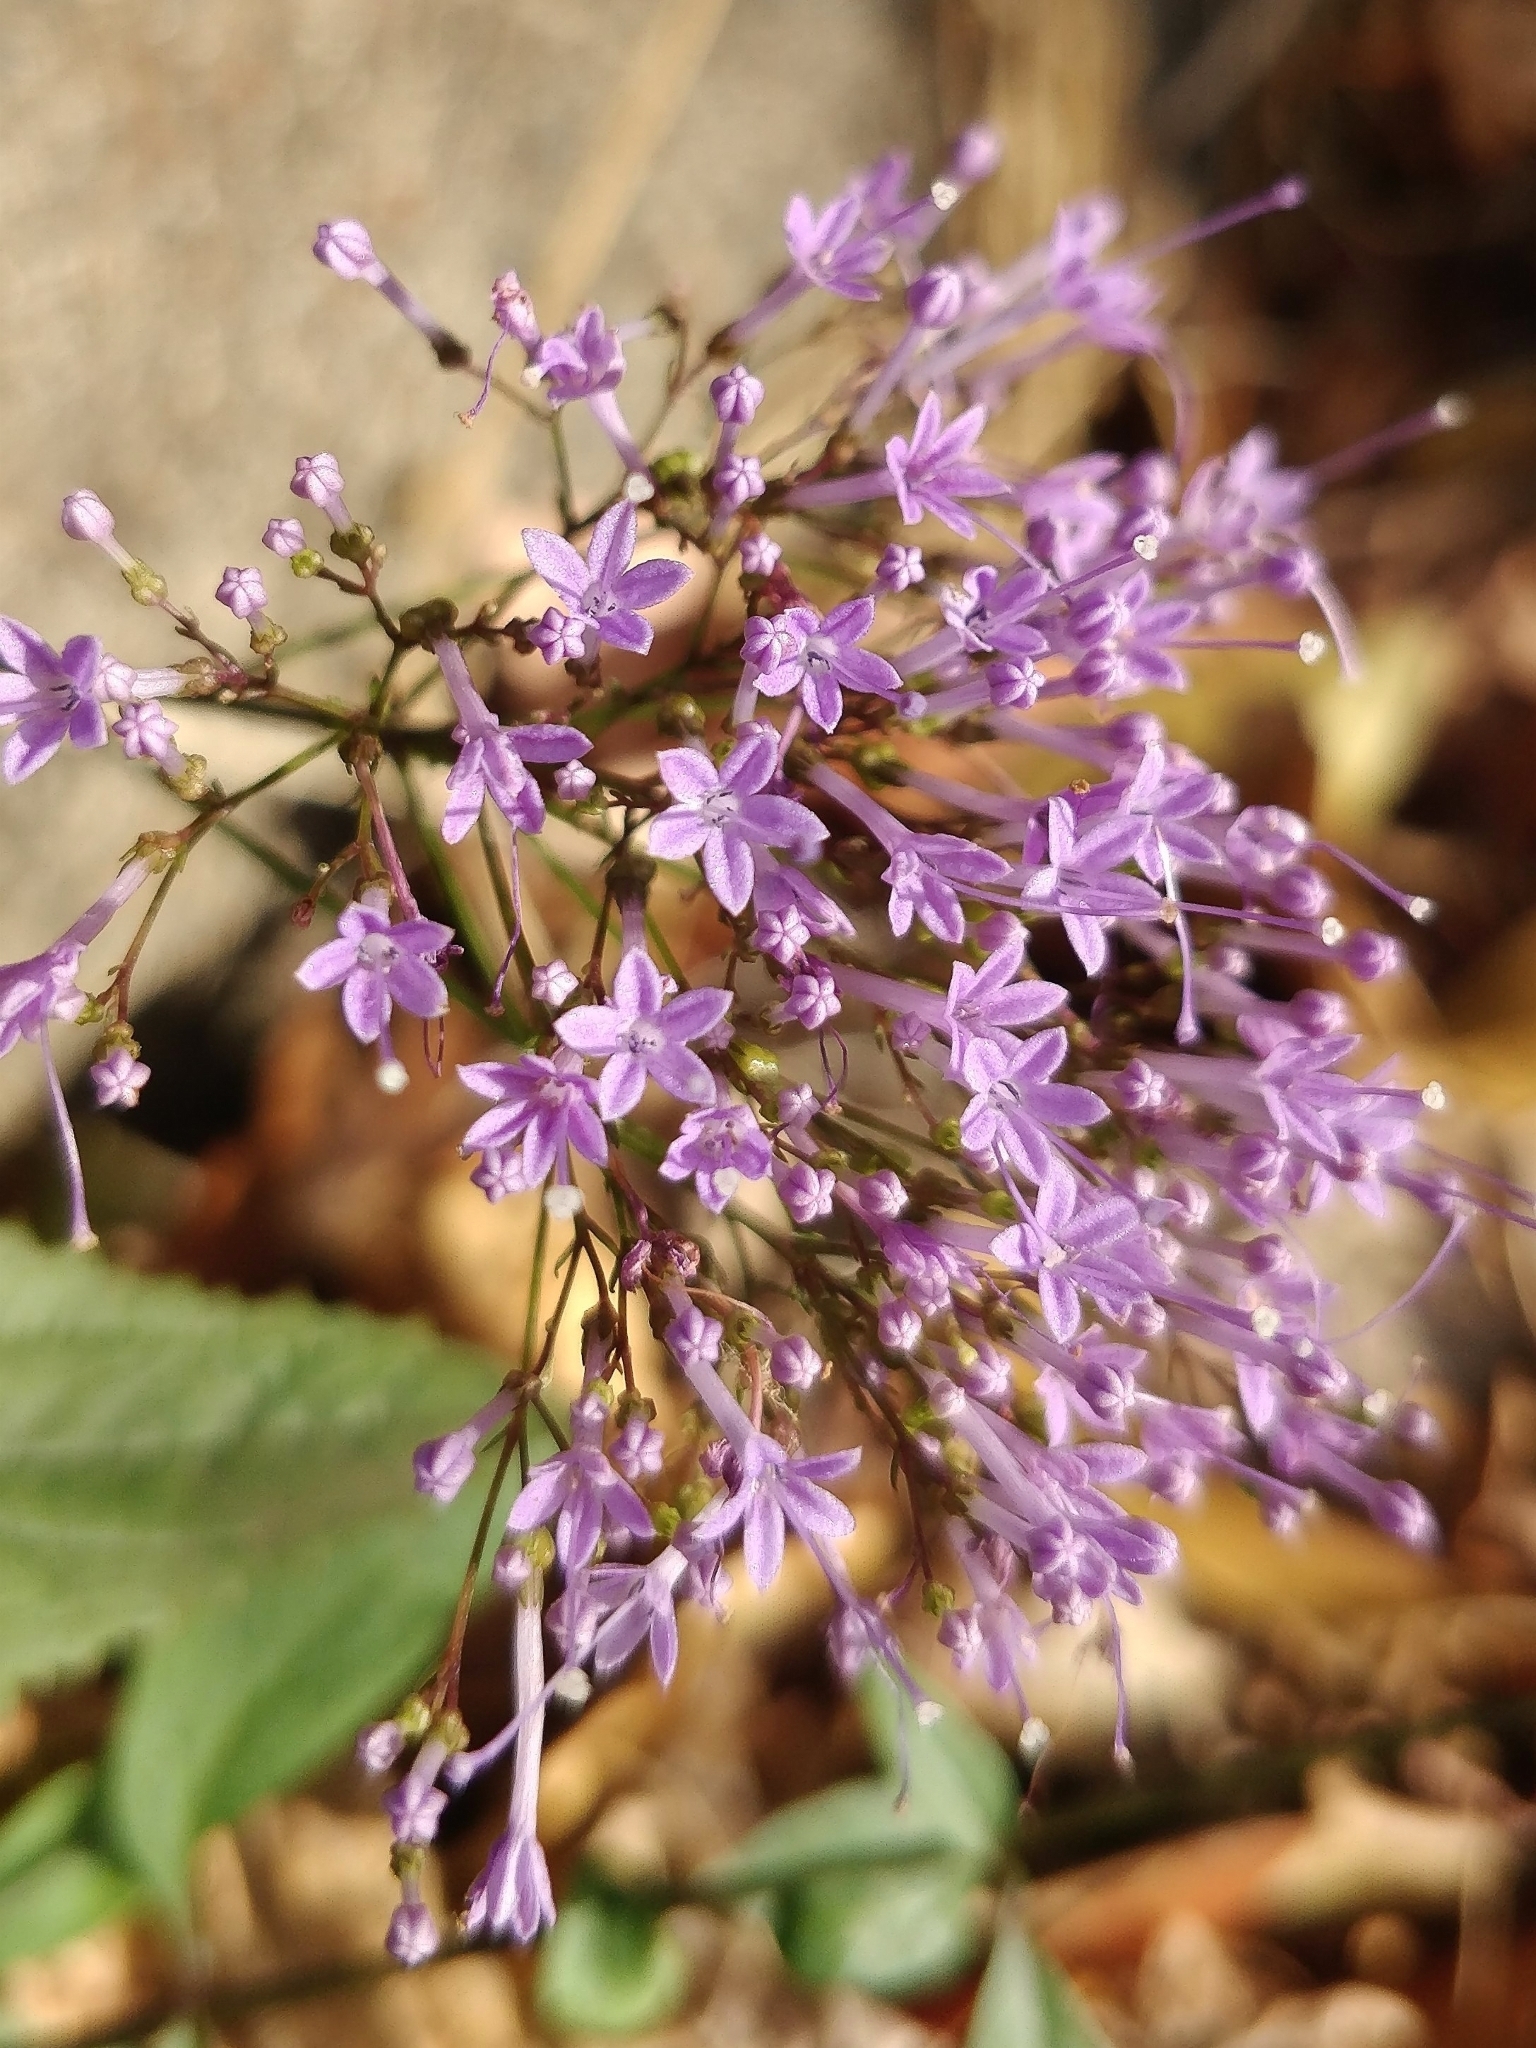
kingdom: Plantae
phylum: Tracheophyta
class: Magnoliopsida
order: Asterales
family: Campanulaceae
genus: Trachelium
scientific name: Trachelium caeruleum
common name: Throatwort
